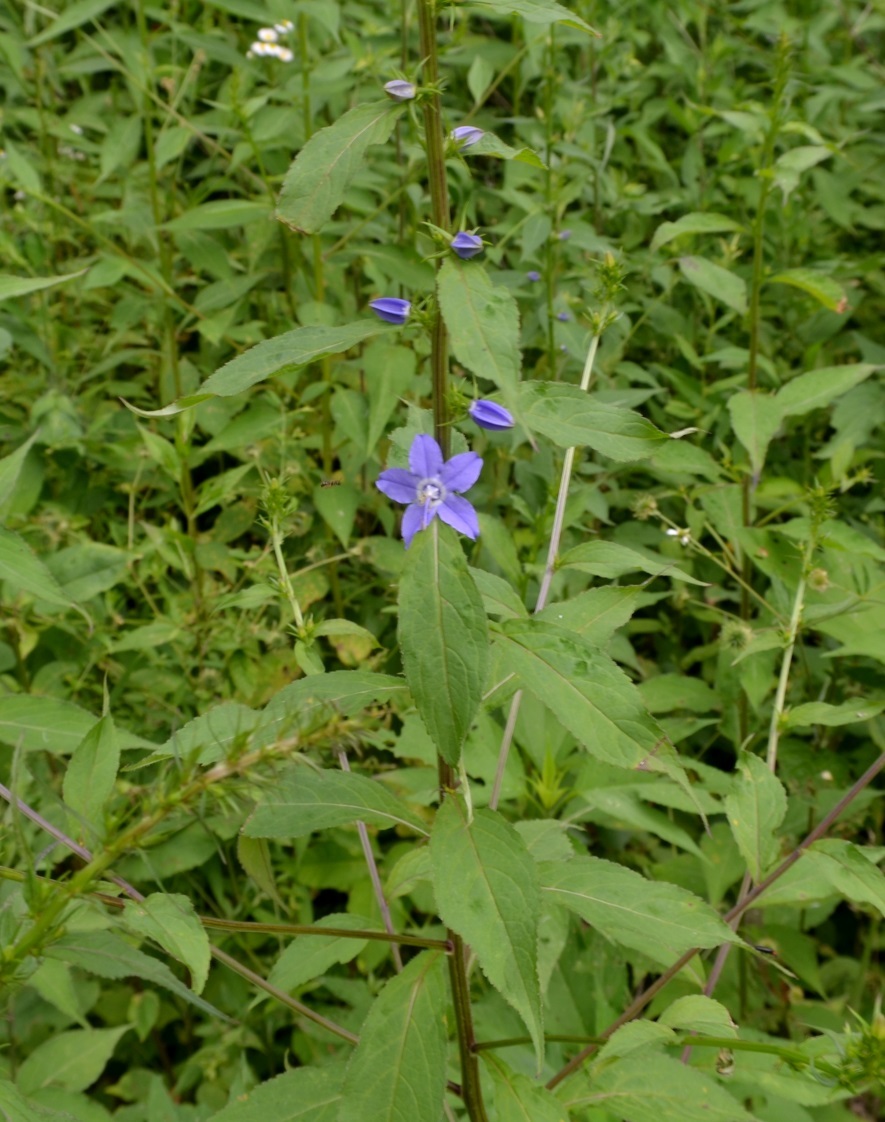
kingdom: Plantae
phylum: Tracheophyta
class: Magnoliopsida
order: Asterales
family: Campanulaceae
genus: Campanulastrum
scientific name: Campanulastrum americanum
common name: American bellflower
